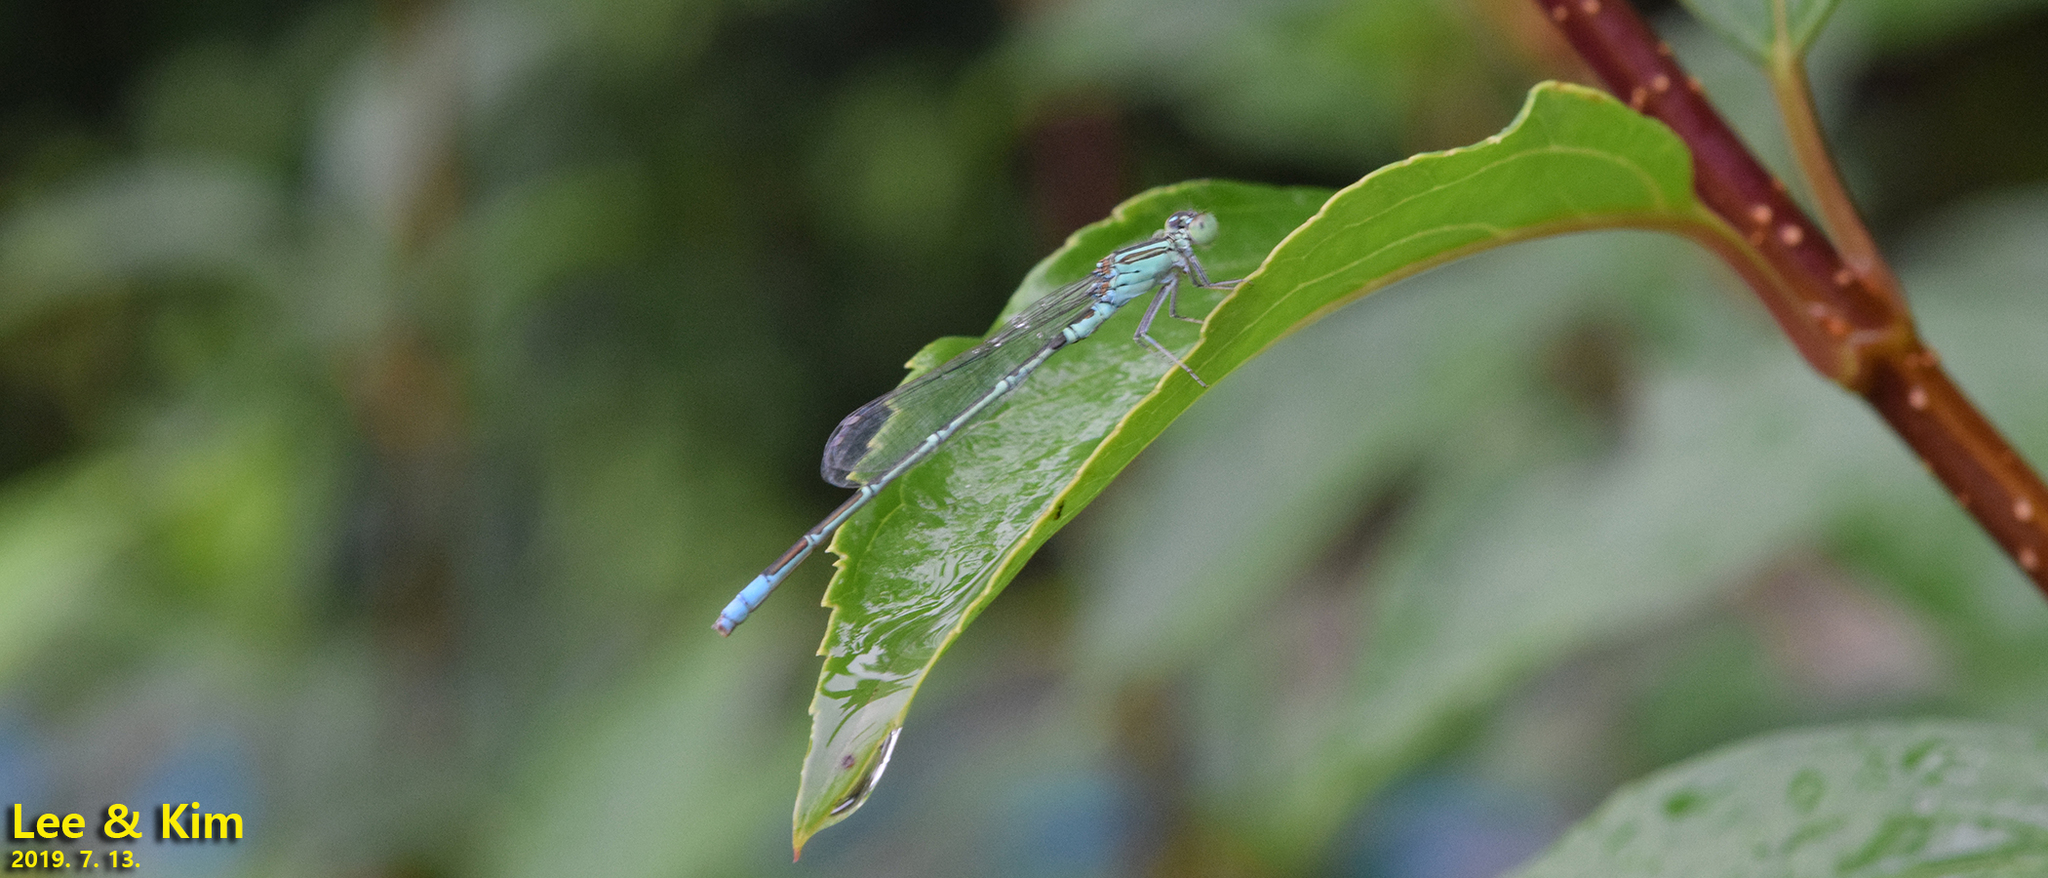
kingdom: Animalia
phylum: Arthropoda
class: Insecta
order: Odonata
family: Coenagrionidae
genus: Paracercion
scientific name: Paracercion hieroglyphicum
